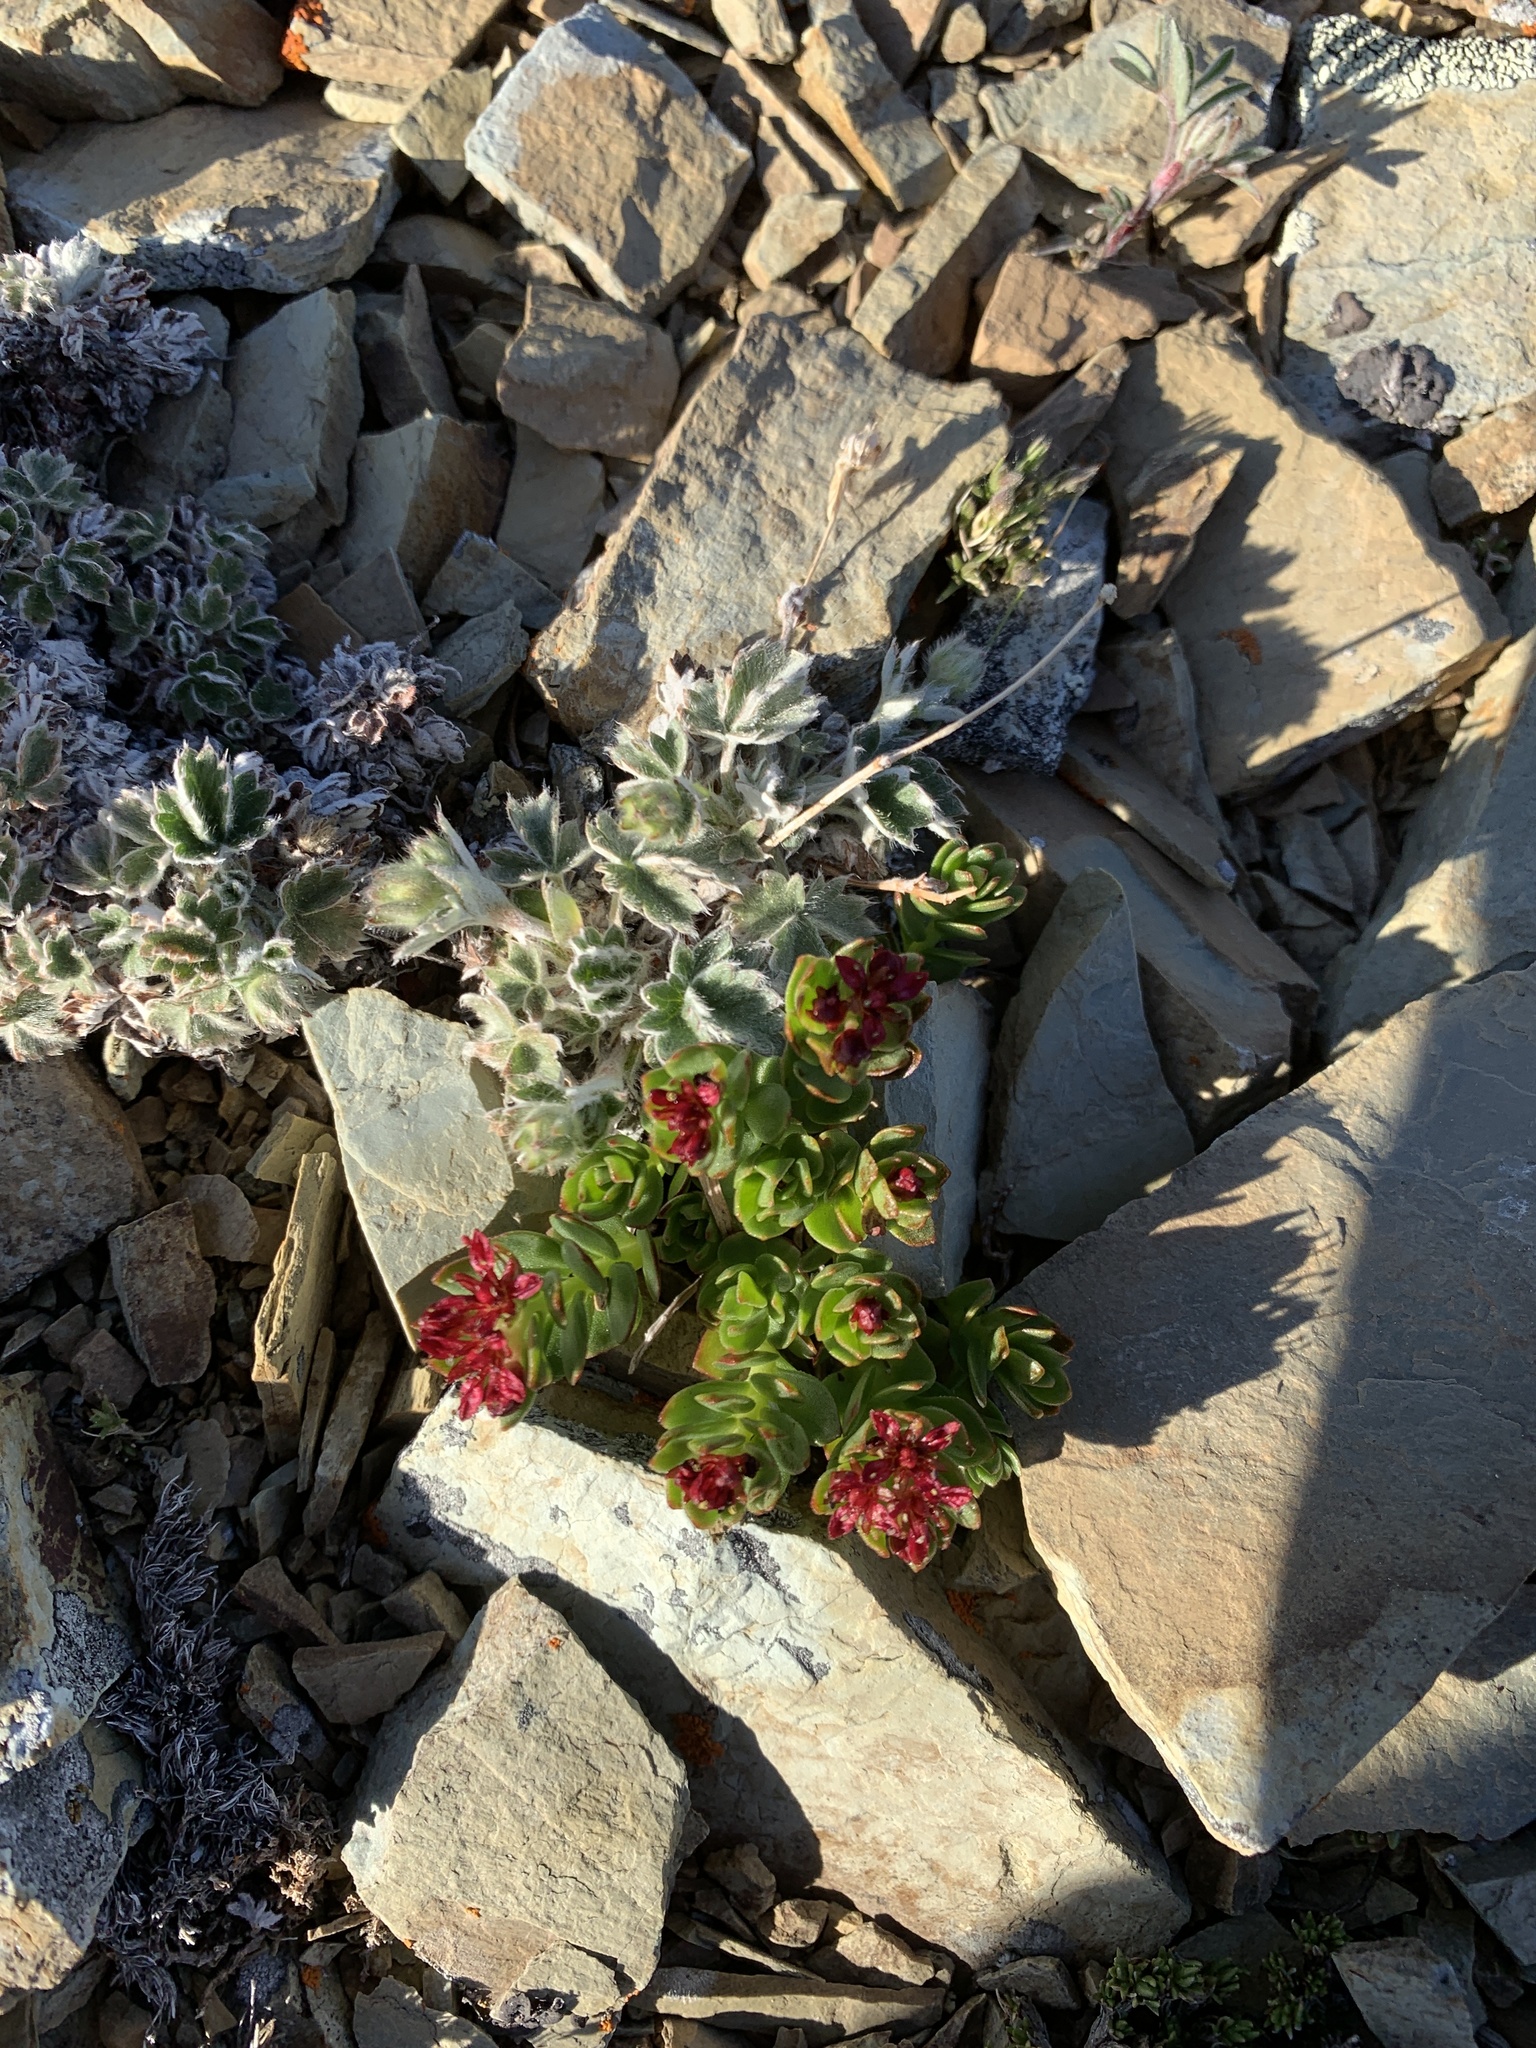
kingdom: Plantae
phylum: Tracheophyta
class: Magnoliopsida
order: Saxifragales
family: Crassulaceae
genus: Rhodiola
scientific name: Rhodiola integrifolia
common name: Western roseroot
